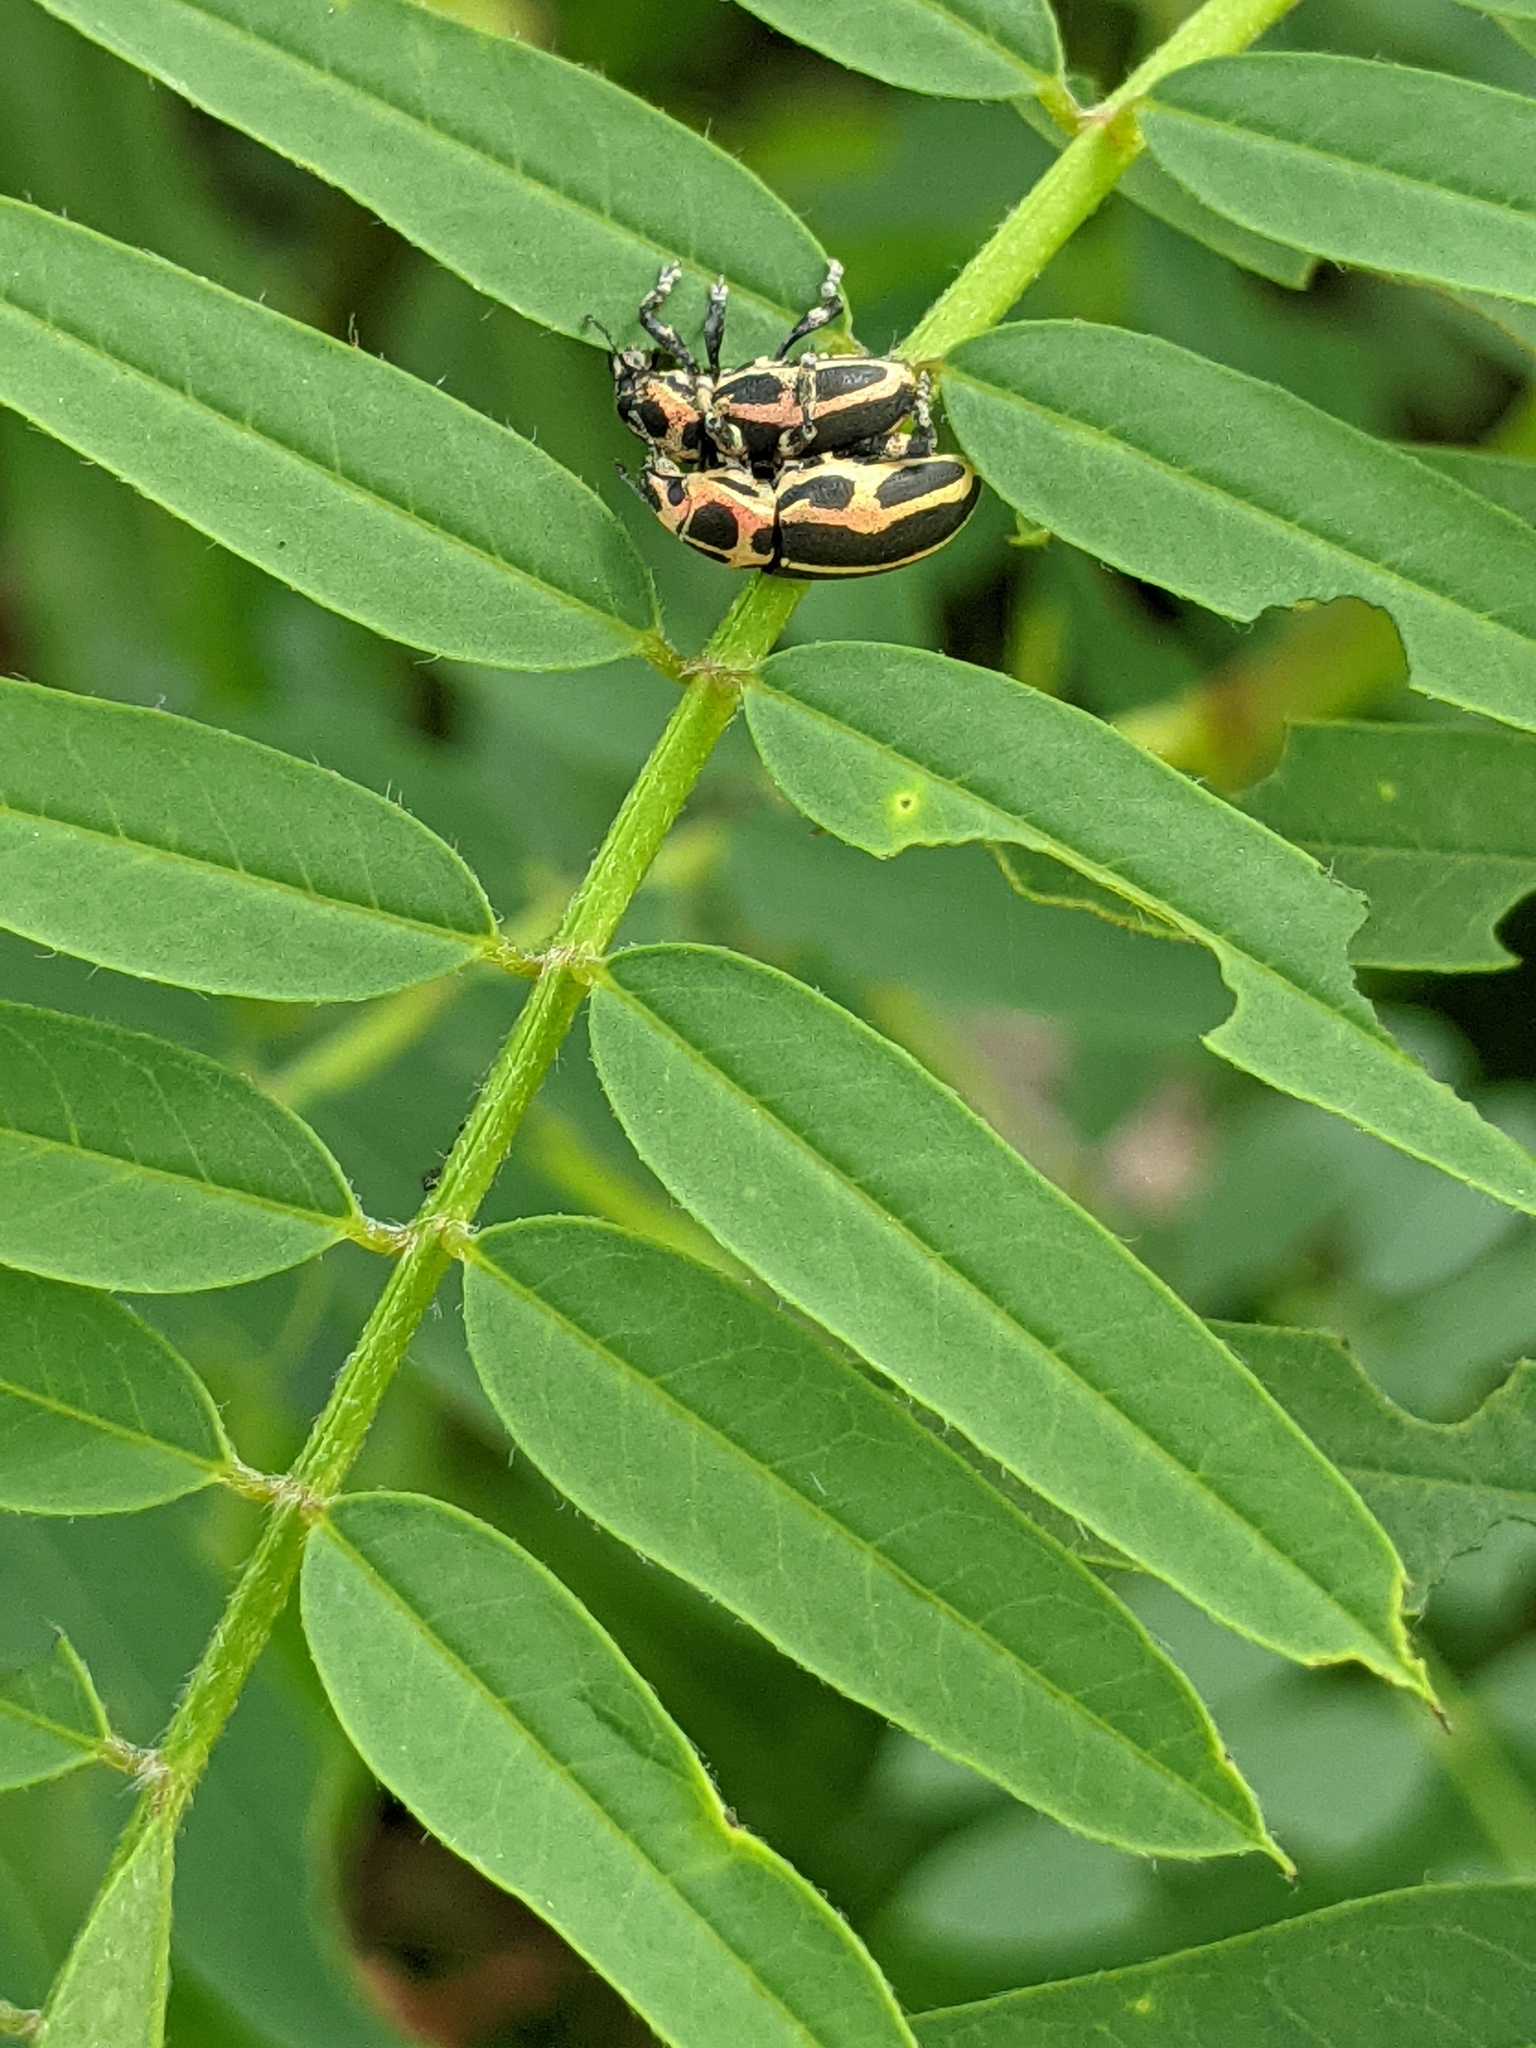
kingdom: Animalia
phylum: Arthropoda
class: Insecta
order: Coleoptera
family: Curculionidae
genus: Eudiagogus
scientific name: Eudiagogus pulcher
